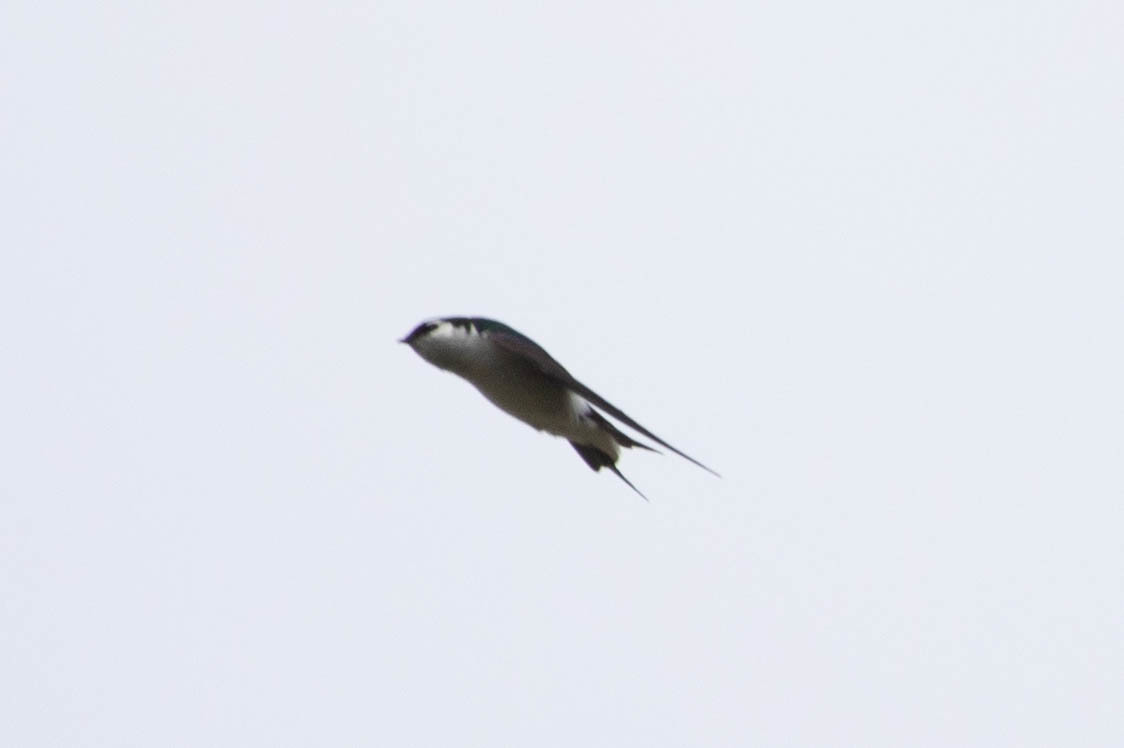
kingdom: Animalia
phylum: Chordata
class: Aves
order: Passeriformes
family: Hirundinidae
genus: Tachycineta
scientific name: Tachycineta thalassina
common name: Violet-green swallow
